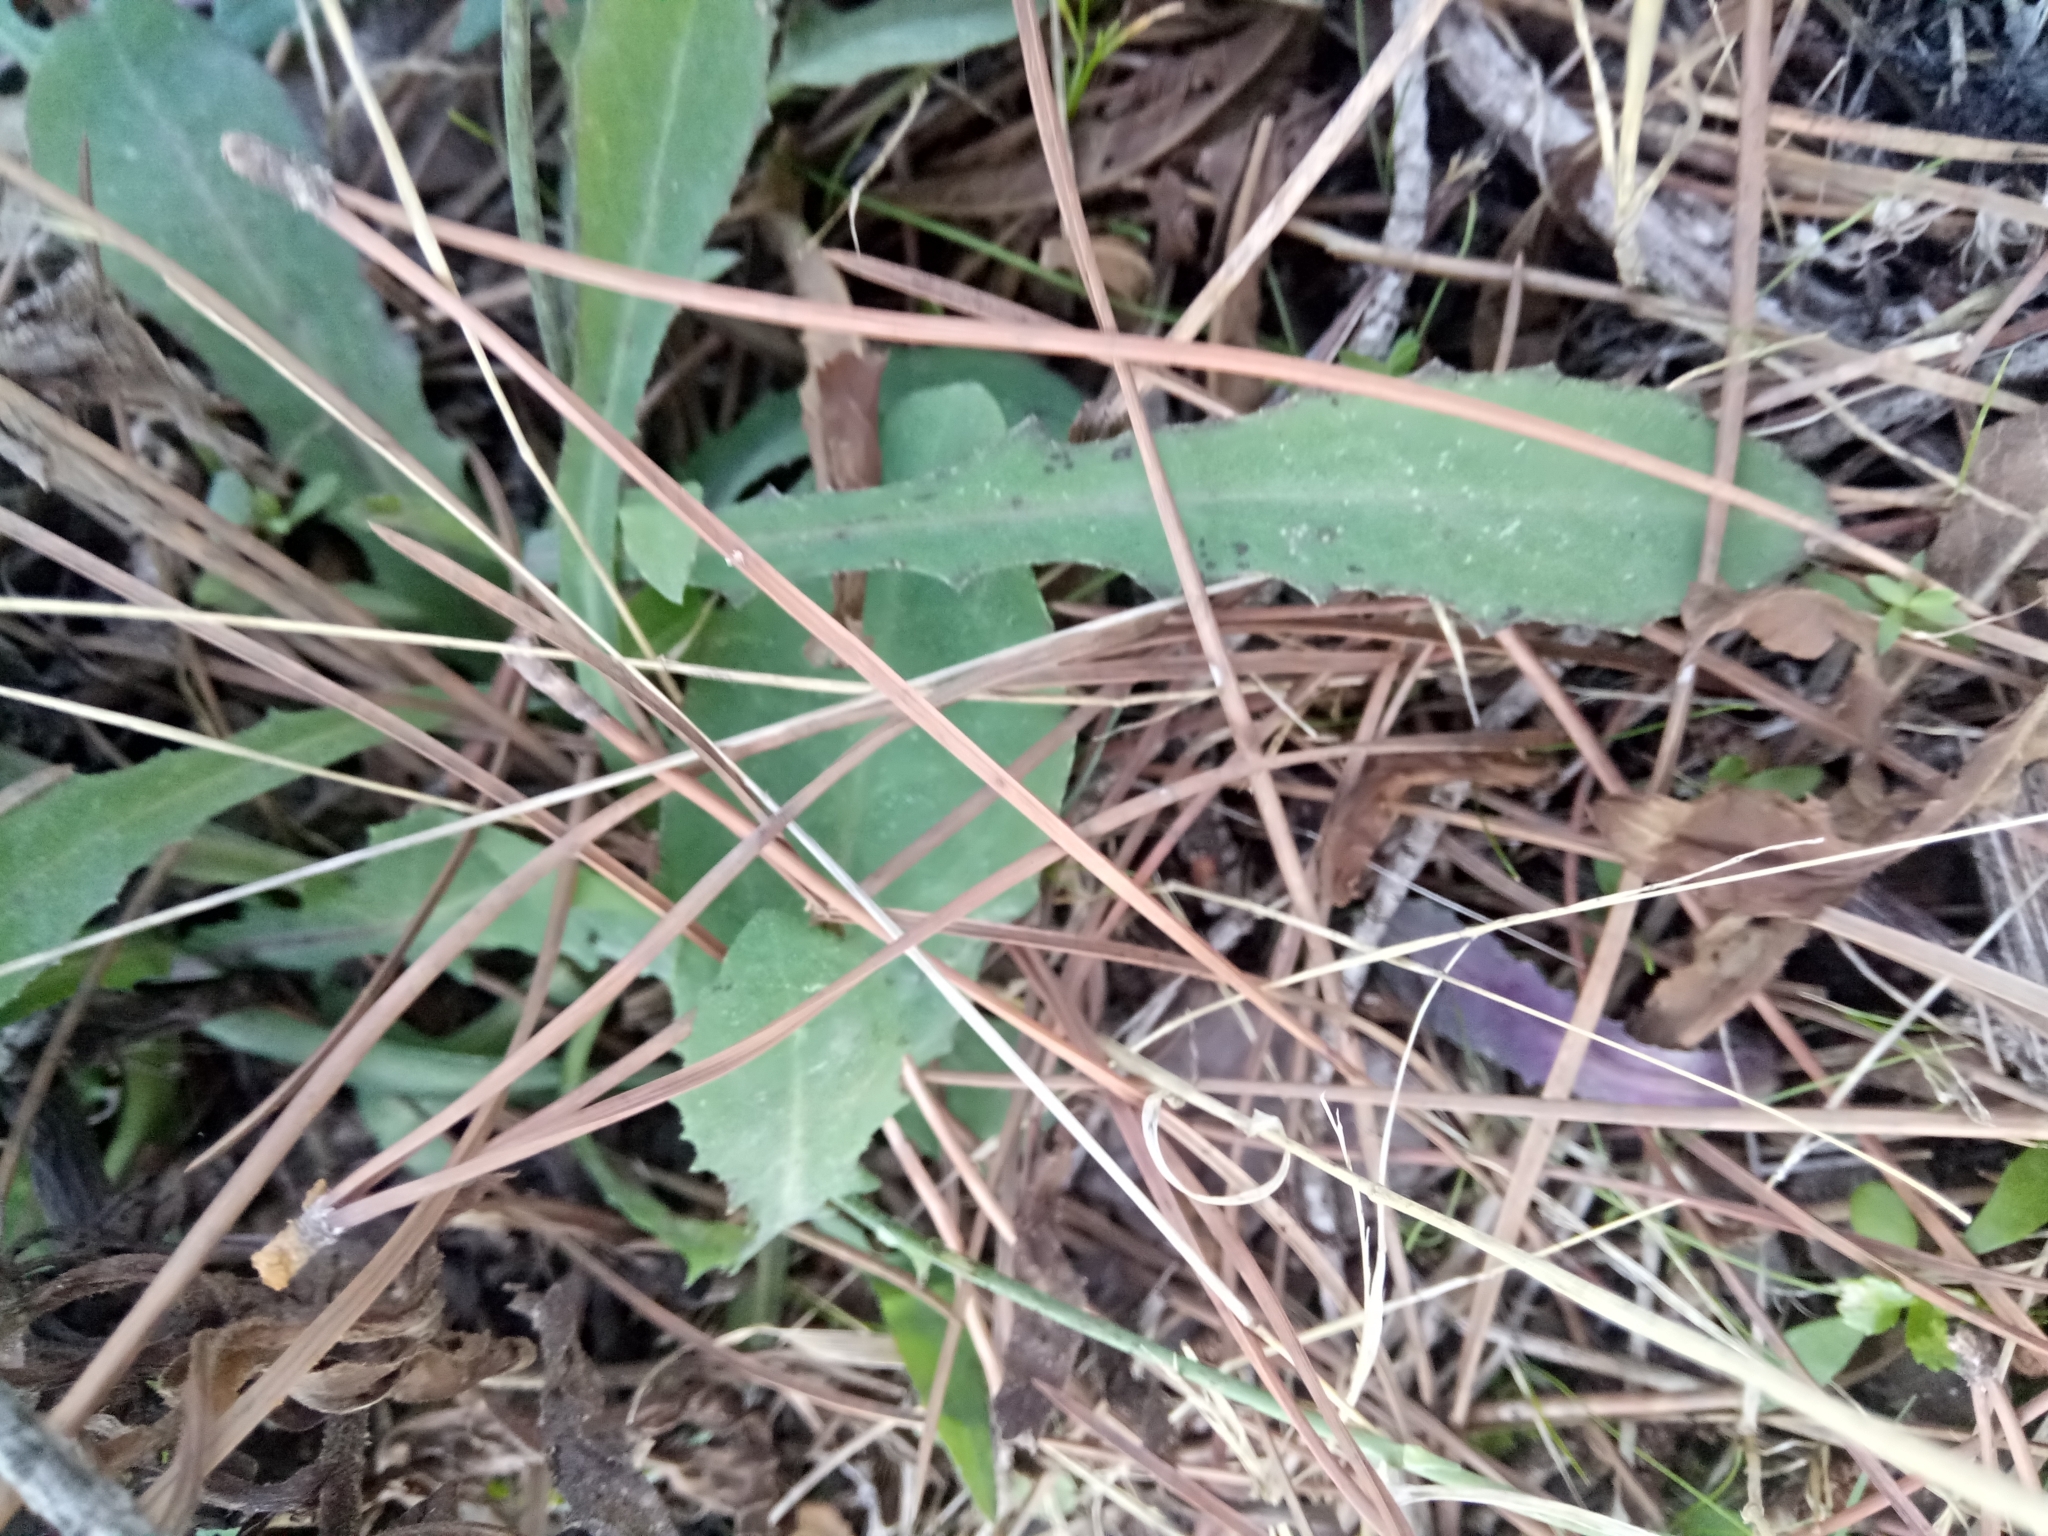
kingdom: Plantae
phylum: Tracheophyta
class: Magnoliopsida
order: Asterales
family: Asteraceae
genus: Reichardia
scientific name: Reichardia picroides
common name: Common brighteyes
